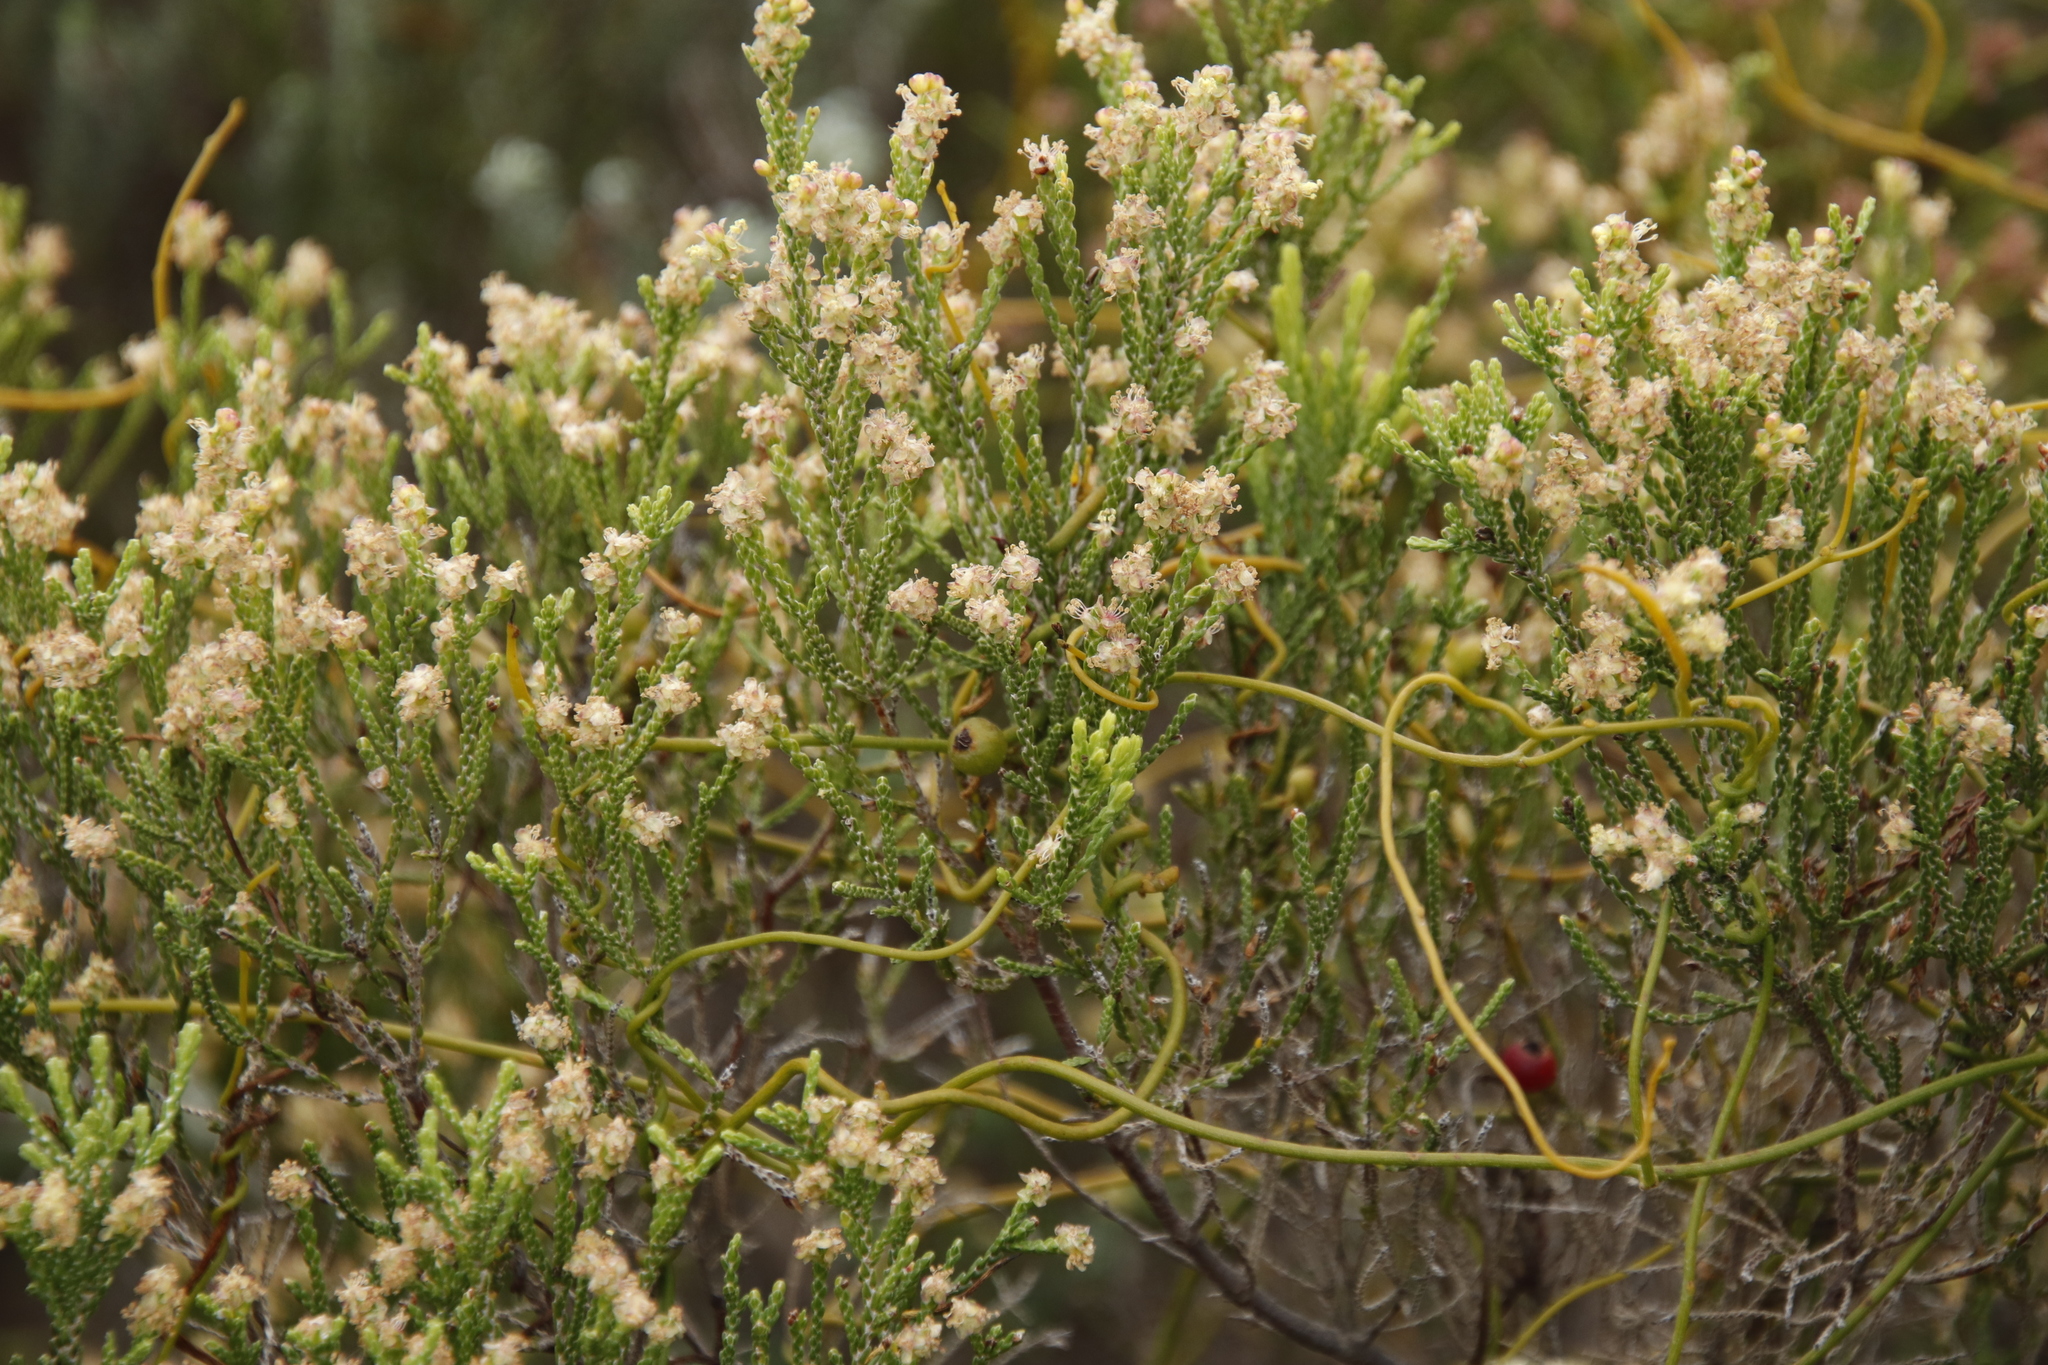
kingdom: Plantae
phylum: Tracheophyta
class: Magnoliopsida
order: Laurales
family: Lauraceae
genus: Cassytha
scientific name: Cassytha ciliolata
